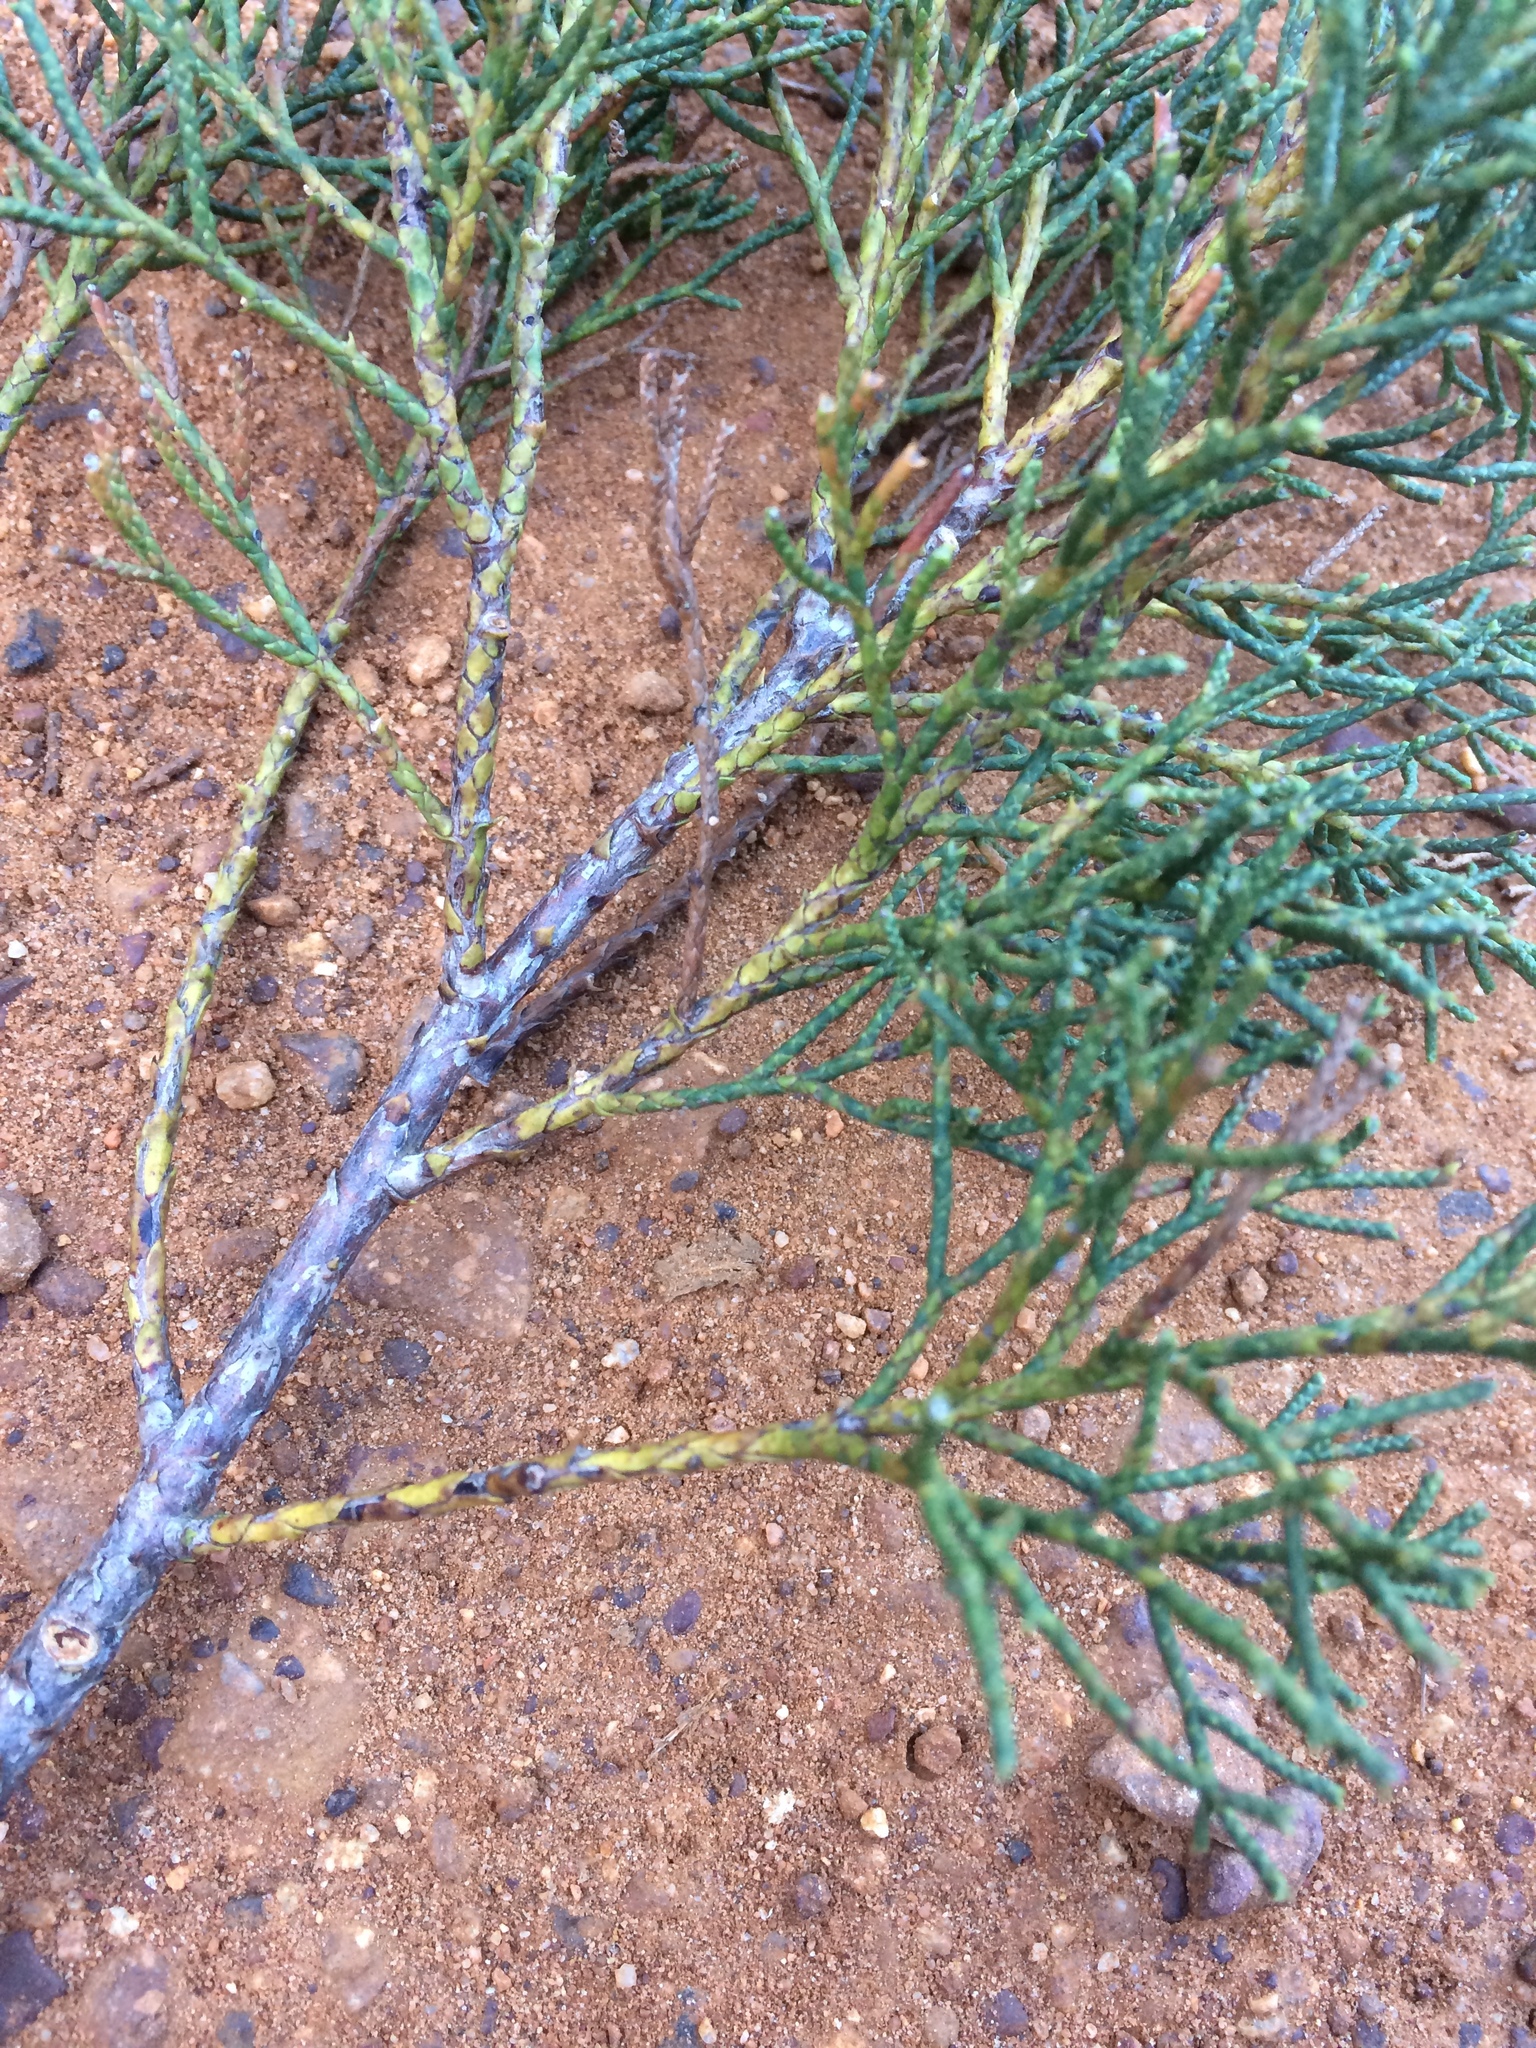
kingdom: Plantae
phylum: Tracheophyta
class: Pinopsida
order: Pinales
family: Cupressaceae
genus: Widdringtonia
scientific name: Widdringtonia nodiflora
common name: Cape cypress
